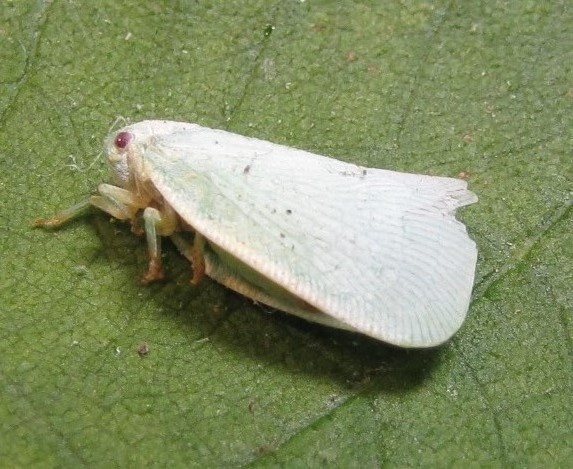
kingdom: Animalia
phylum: Arthropoda
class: Insecta
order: Hemiptera
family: Flatidae
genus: Flatormenis
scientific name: Flatormenis proxima
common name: Northern flatid planthopper
